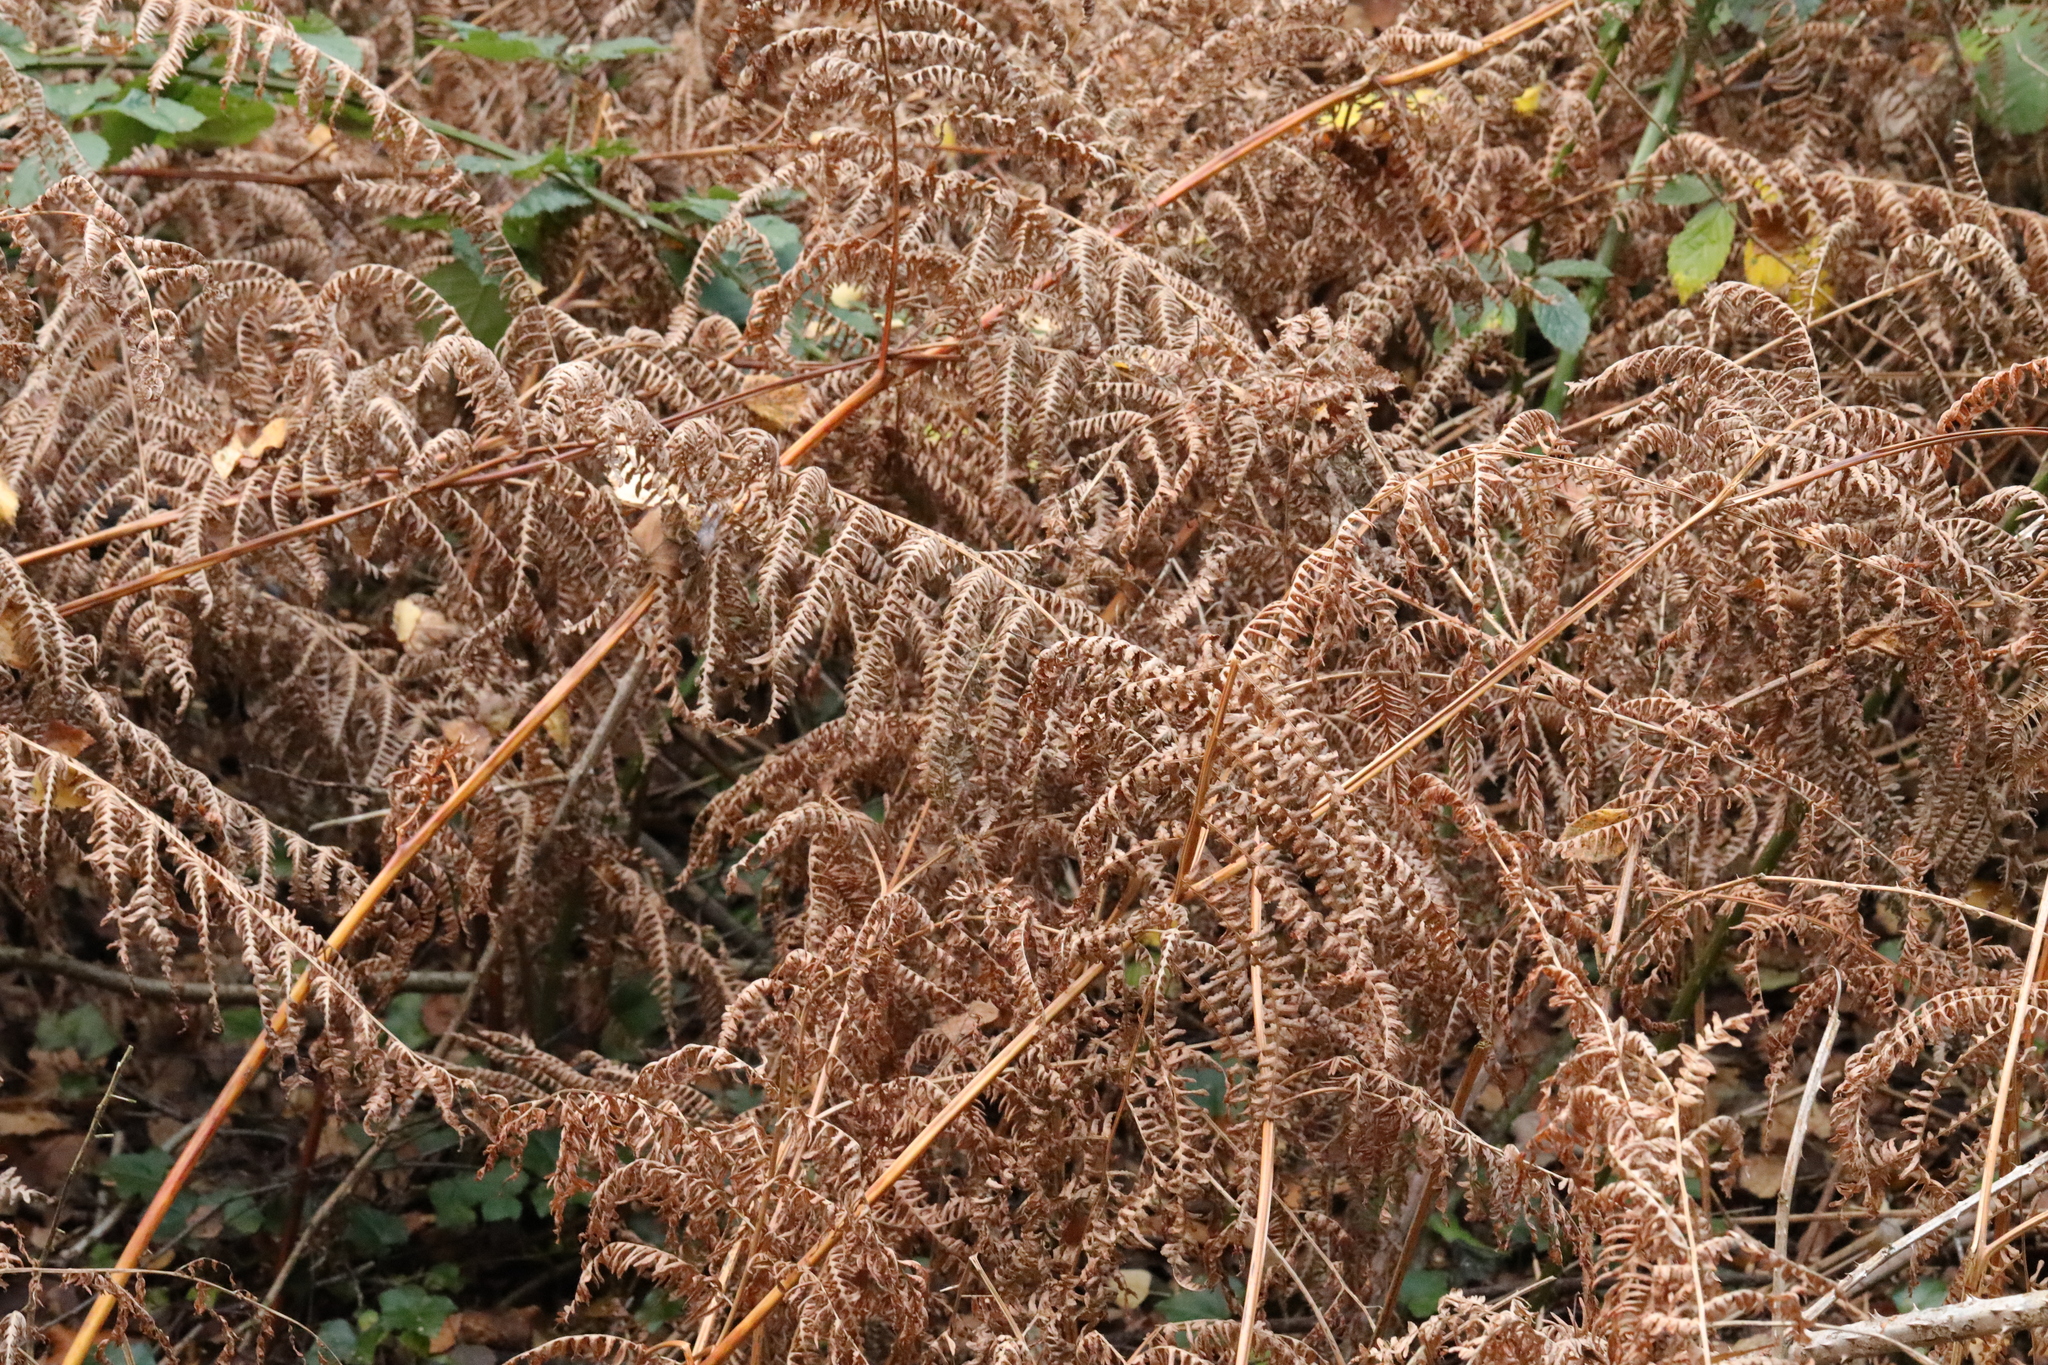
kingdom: Plantae
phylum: Tracheophyta
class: Polypodiopsida
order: Polypodiales
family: Dennstaedtiaceae
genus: Pteridium
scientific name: Pteridium aquilinum
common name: Bracken
